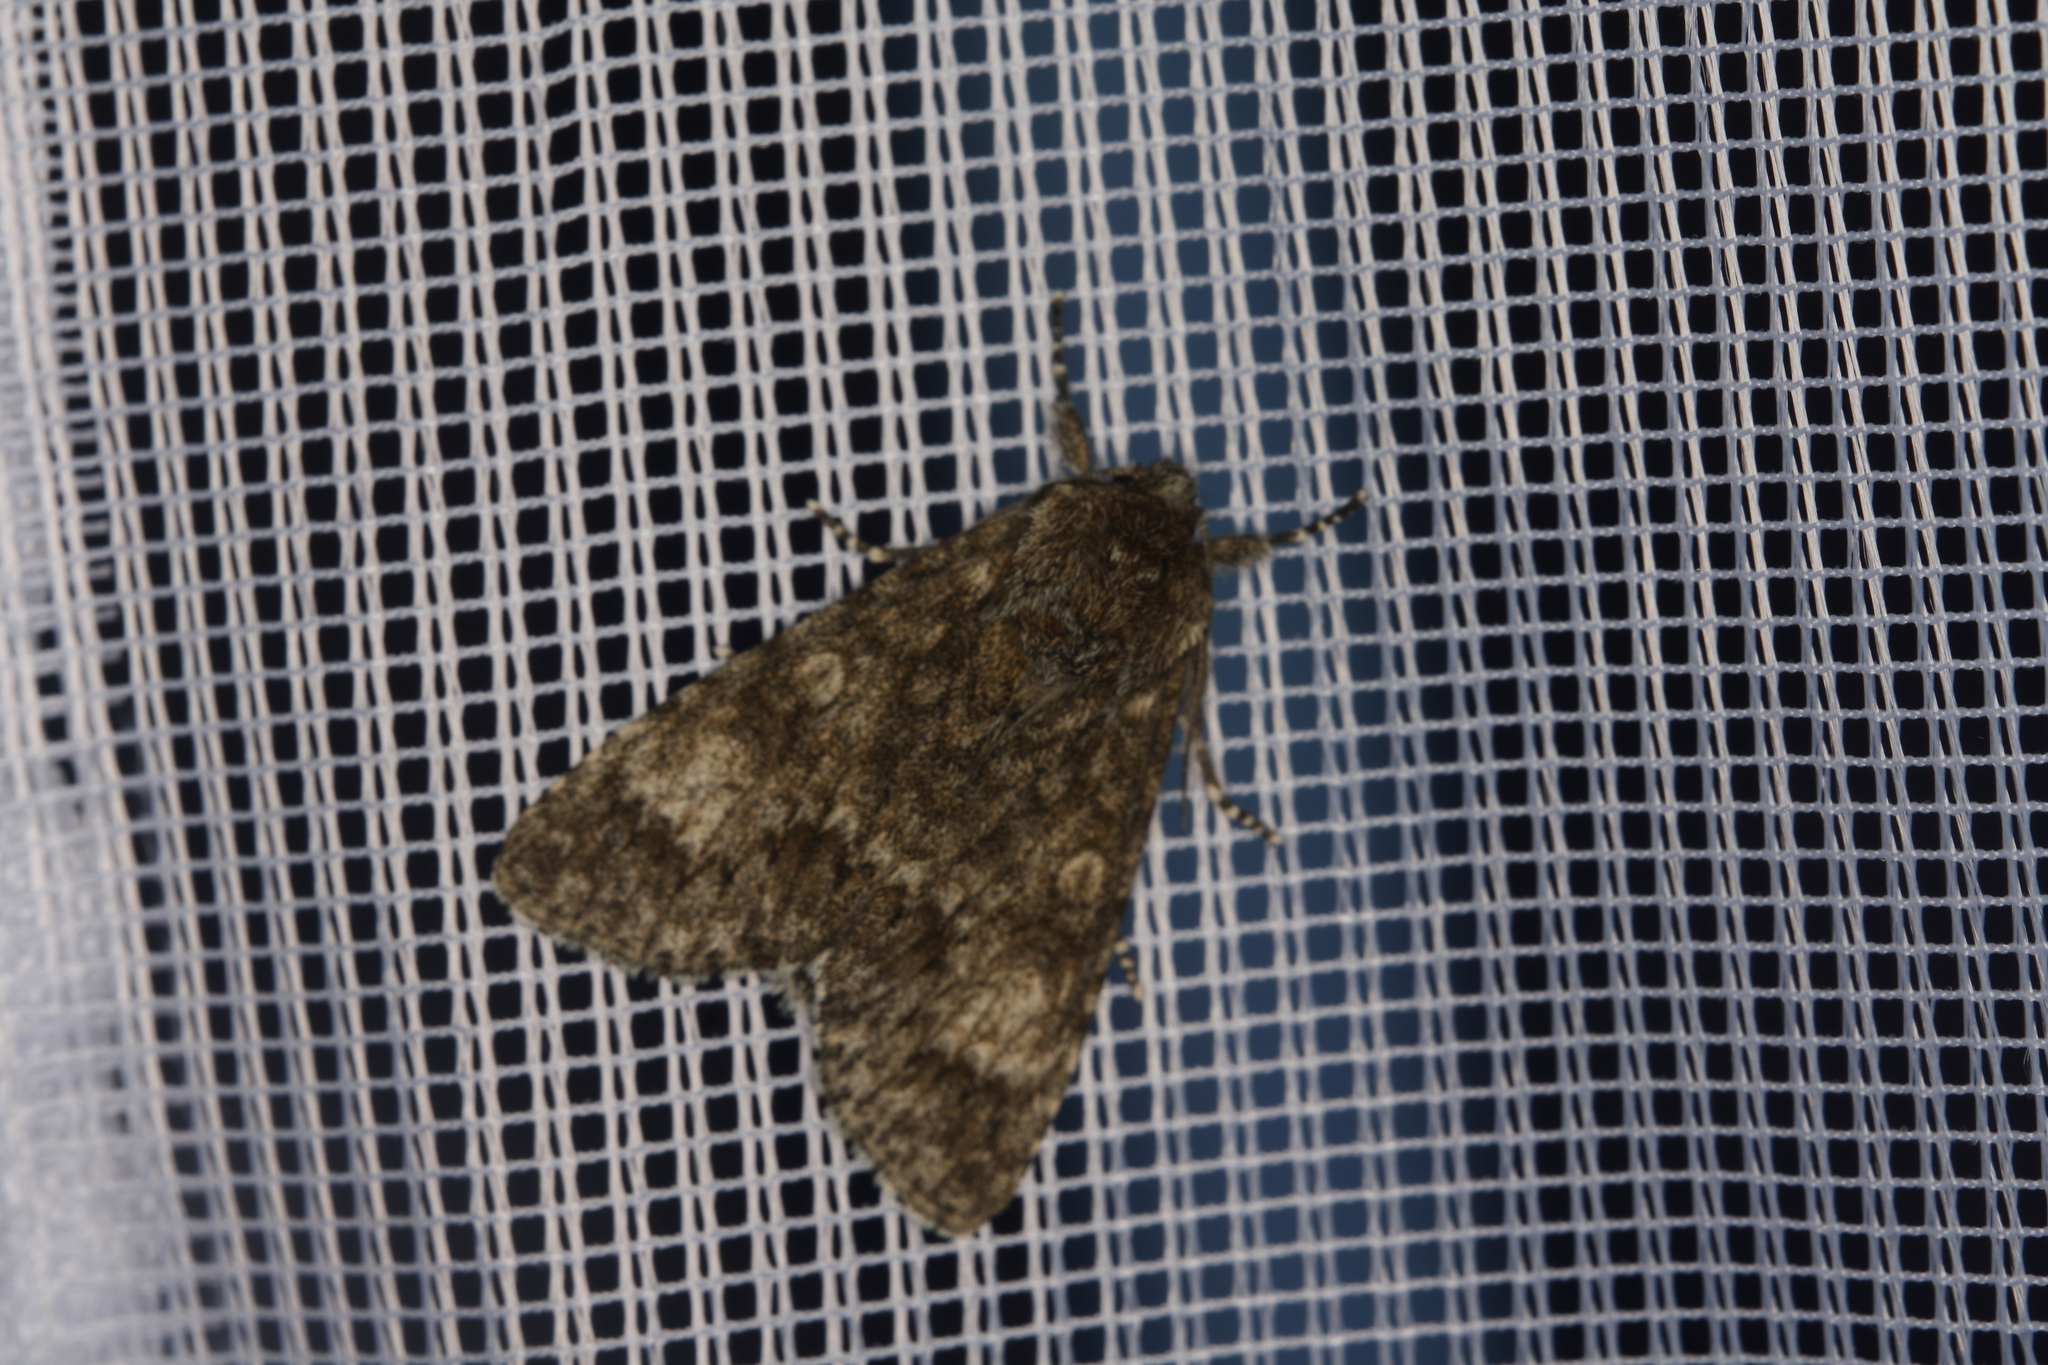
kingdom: Animalia
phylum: Arthropoda
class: Insecta
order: Lepidoptera
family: Noctuidae
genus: Acronicta
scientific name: Acronicta megacephala
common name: Poplar grey
